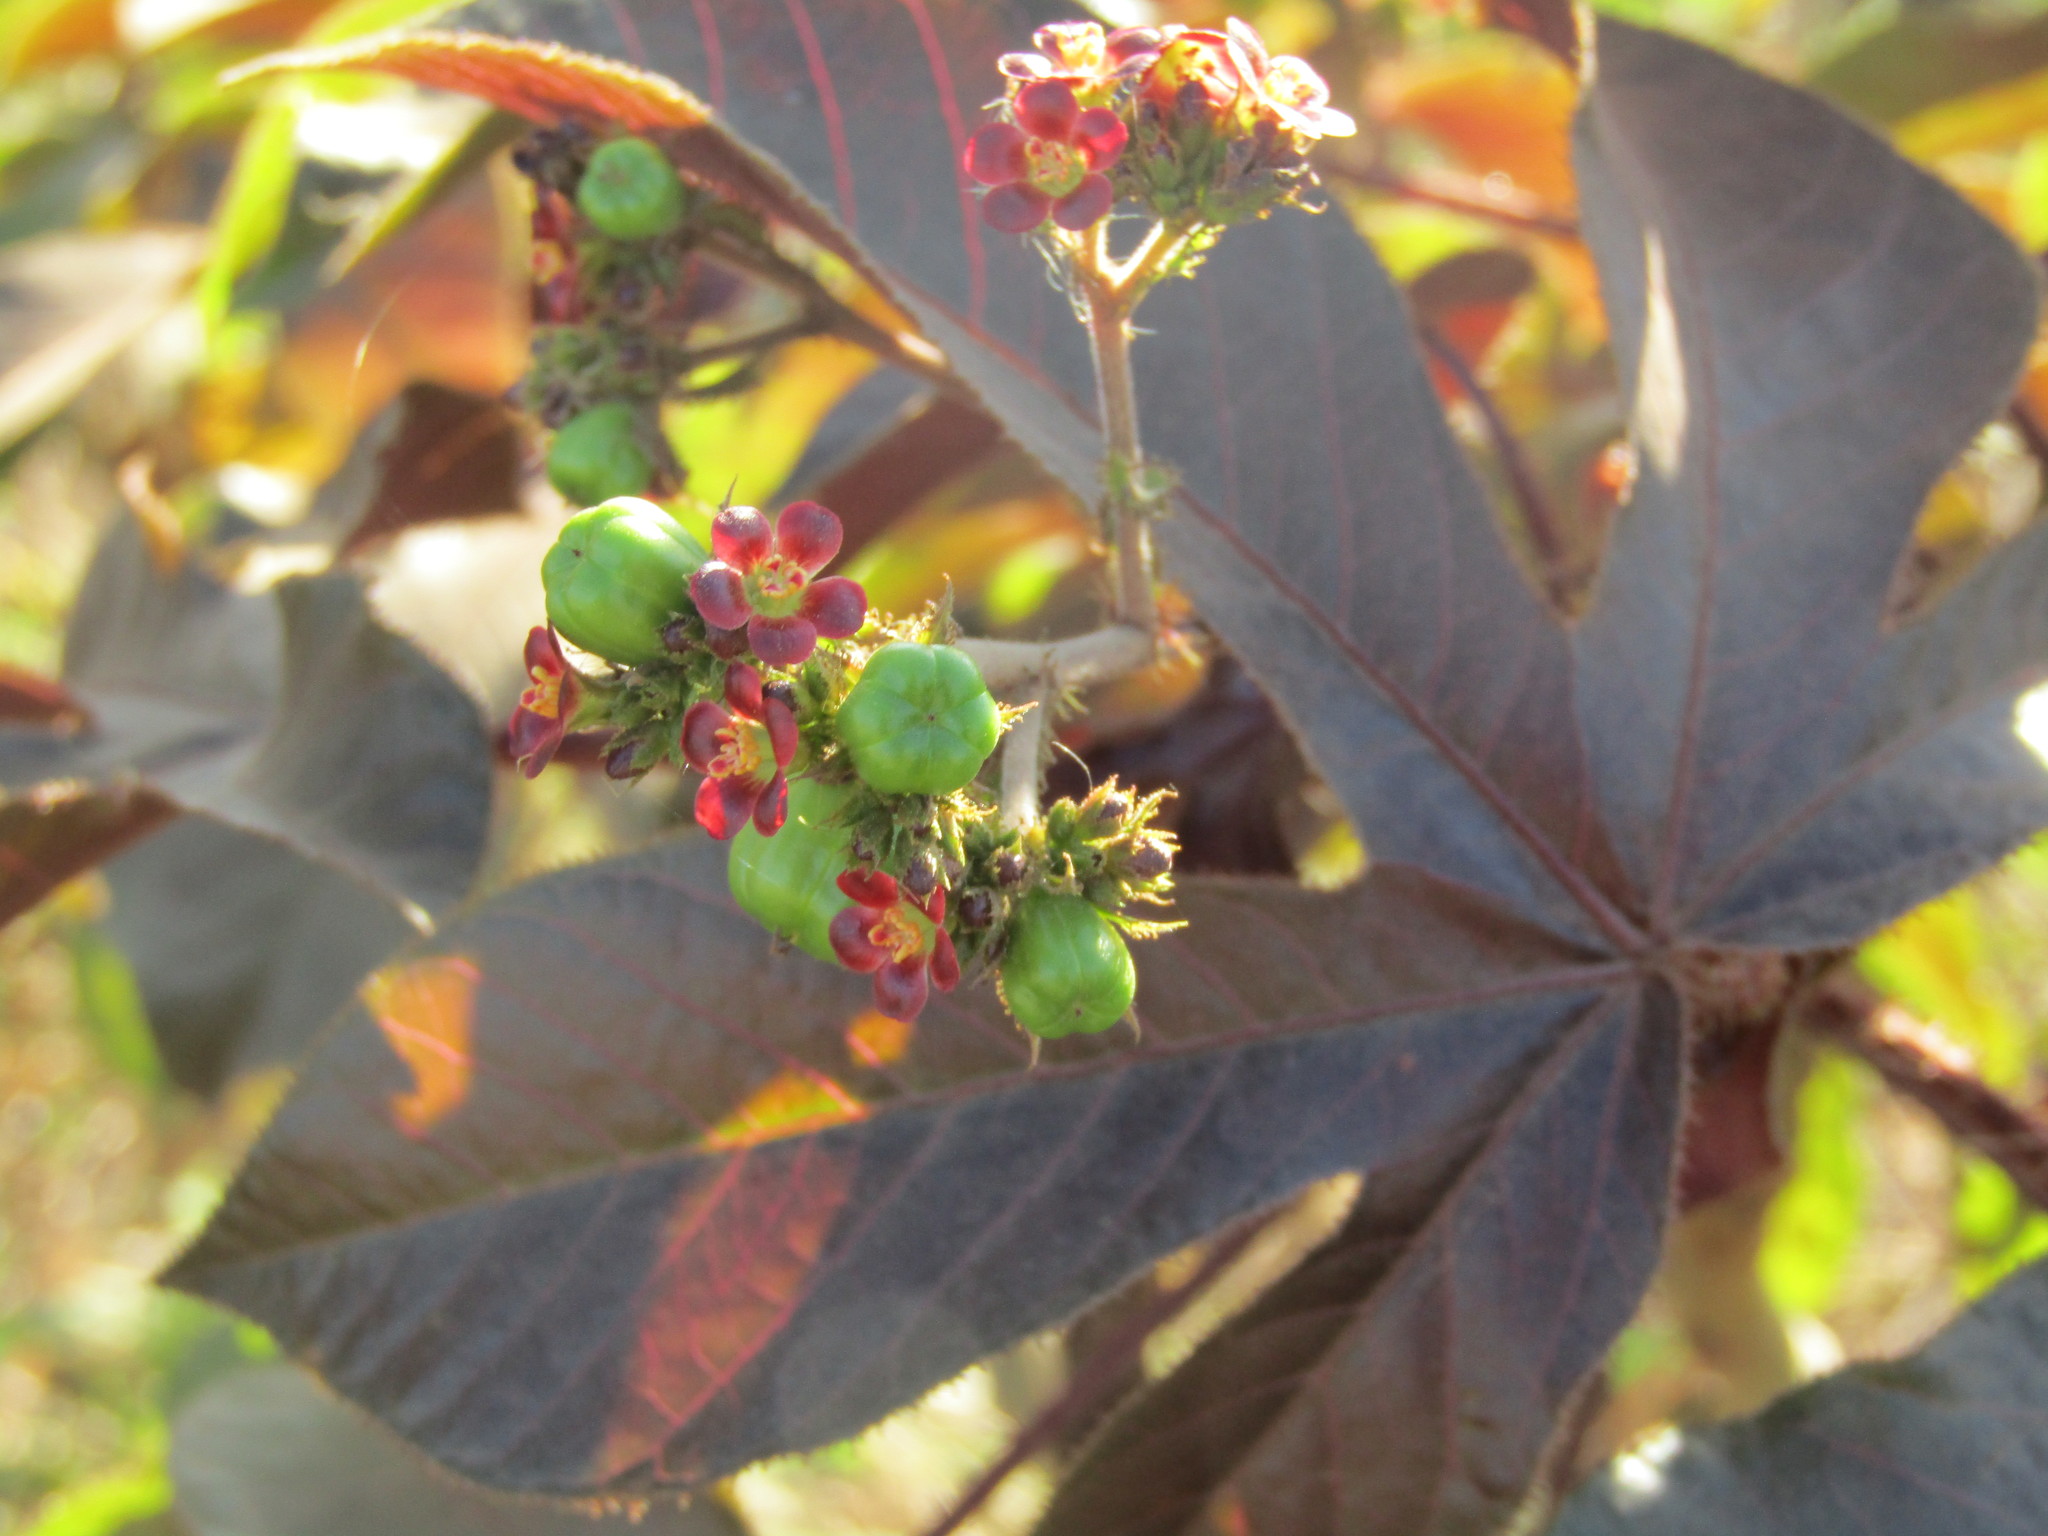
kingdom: Plantae
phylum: Tracheophyta
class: Magnoliopsida
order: Malpighiales
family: Euphorbiaceae
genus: Jatropha
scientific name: Jatropha gossypiifolia
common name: Bellyache bush
